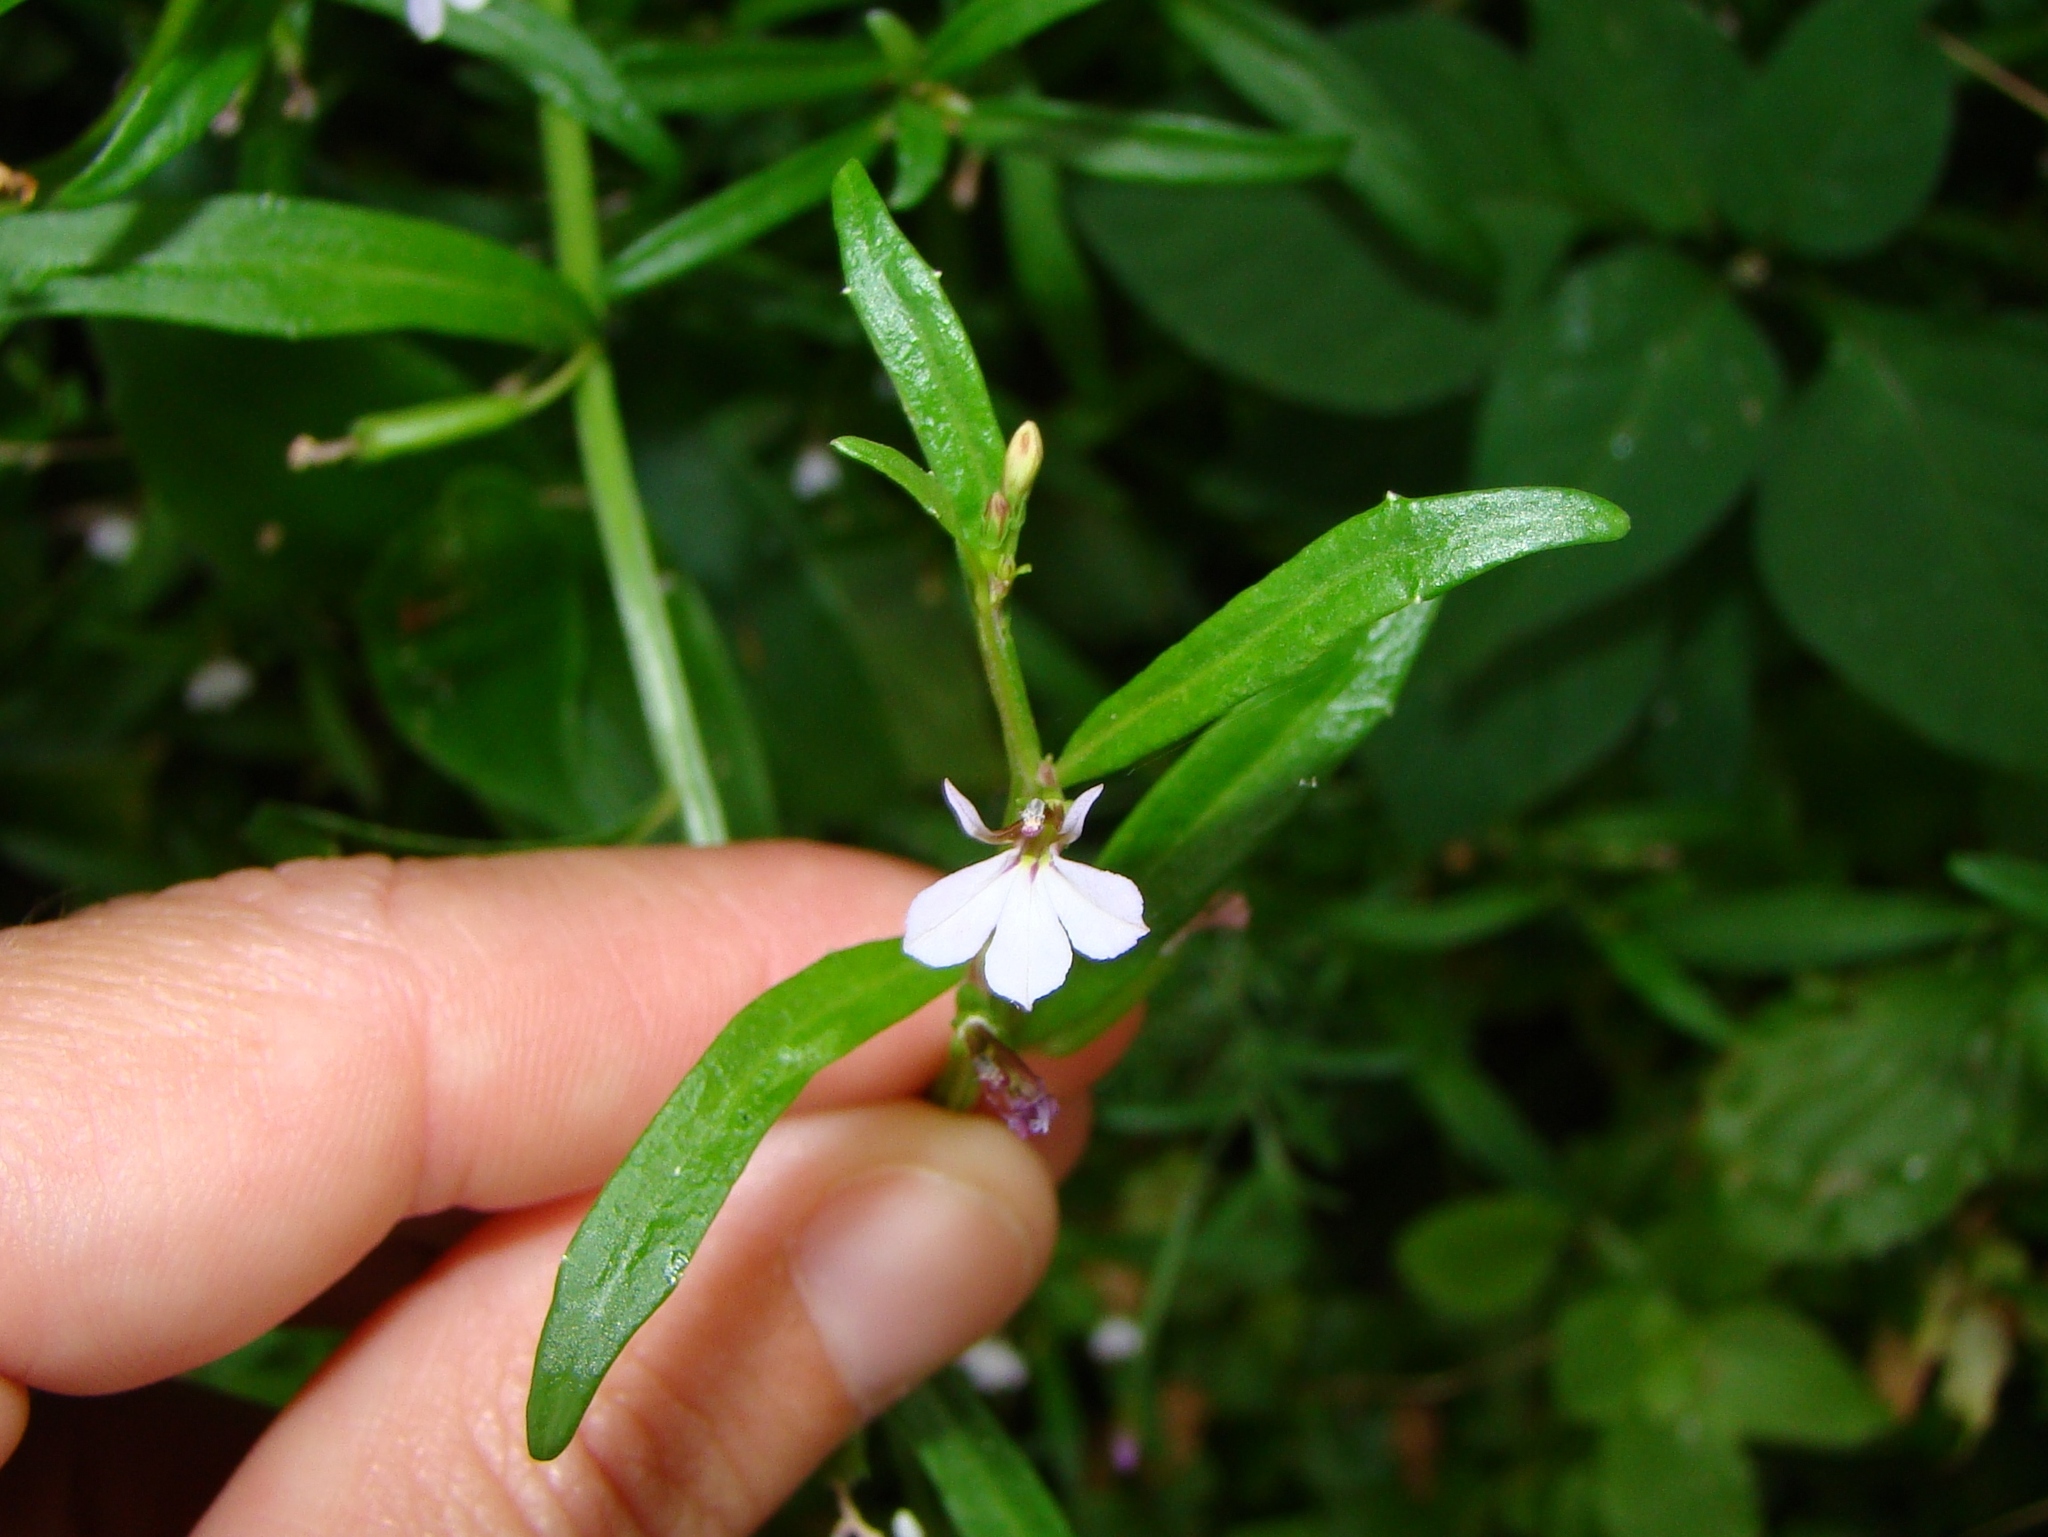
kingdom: Plantae
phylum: Tracheophyta
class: Magnoliopsida
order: Asterales
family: Campanulaceae
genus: Lobelia
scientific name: Lobelia anceps
